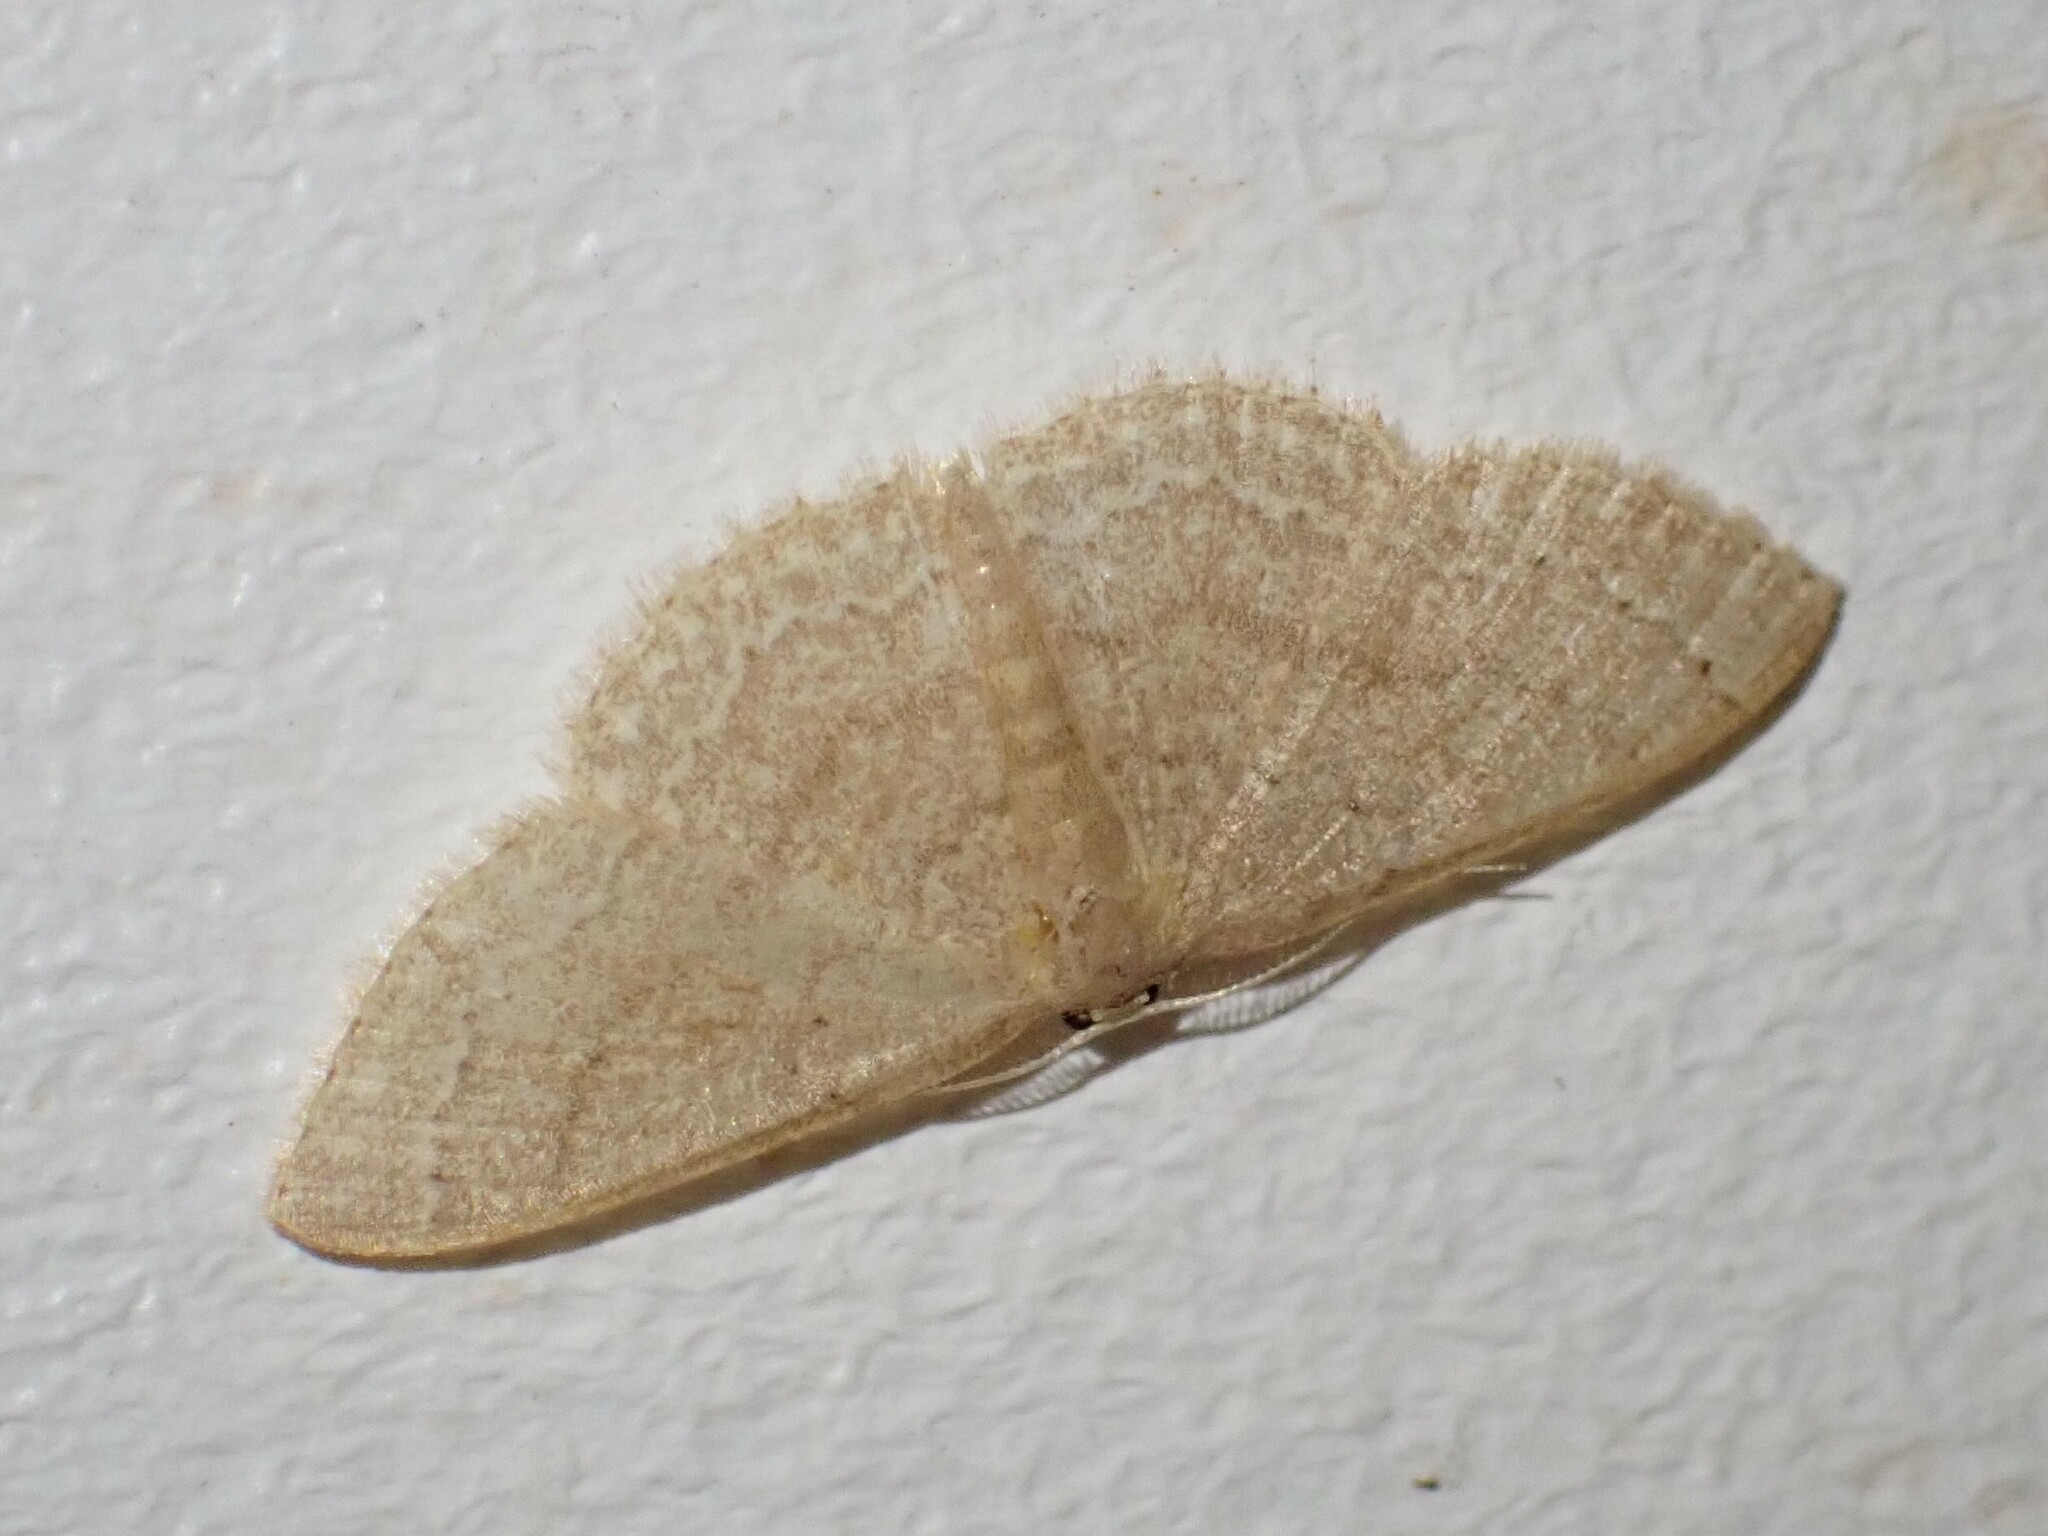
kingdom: Animalia
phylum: Arthropoda
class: Insecta
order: Lepidoptera
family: Geometridae
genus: Pleuroprucha
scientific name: Pleuroprucha insulsaria
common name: Common tan wave
